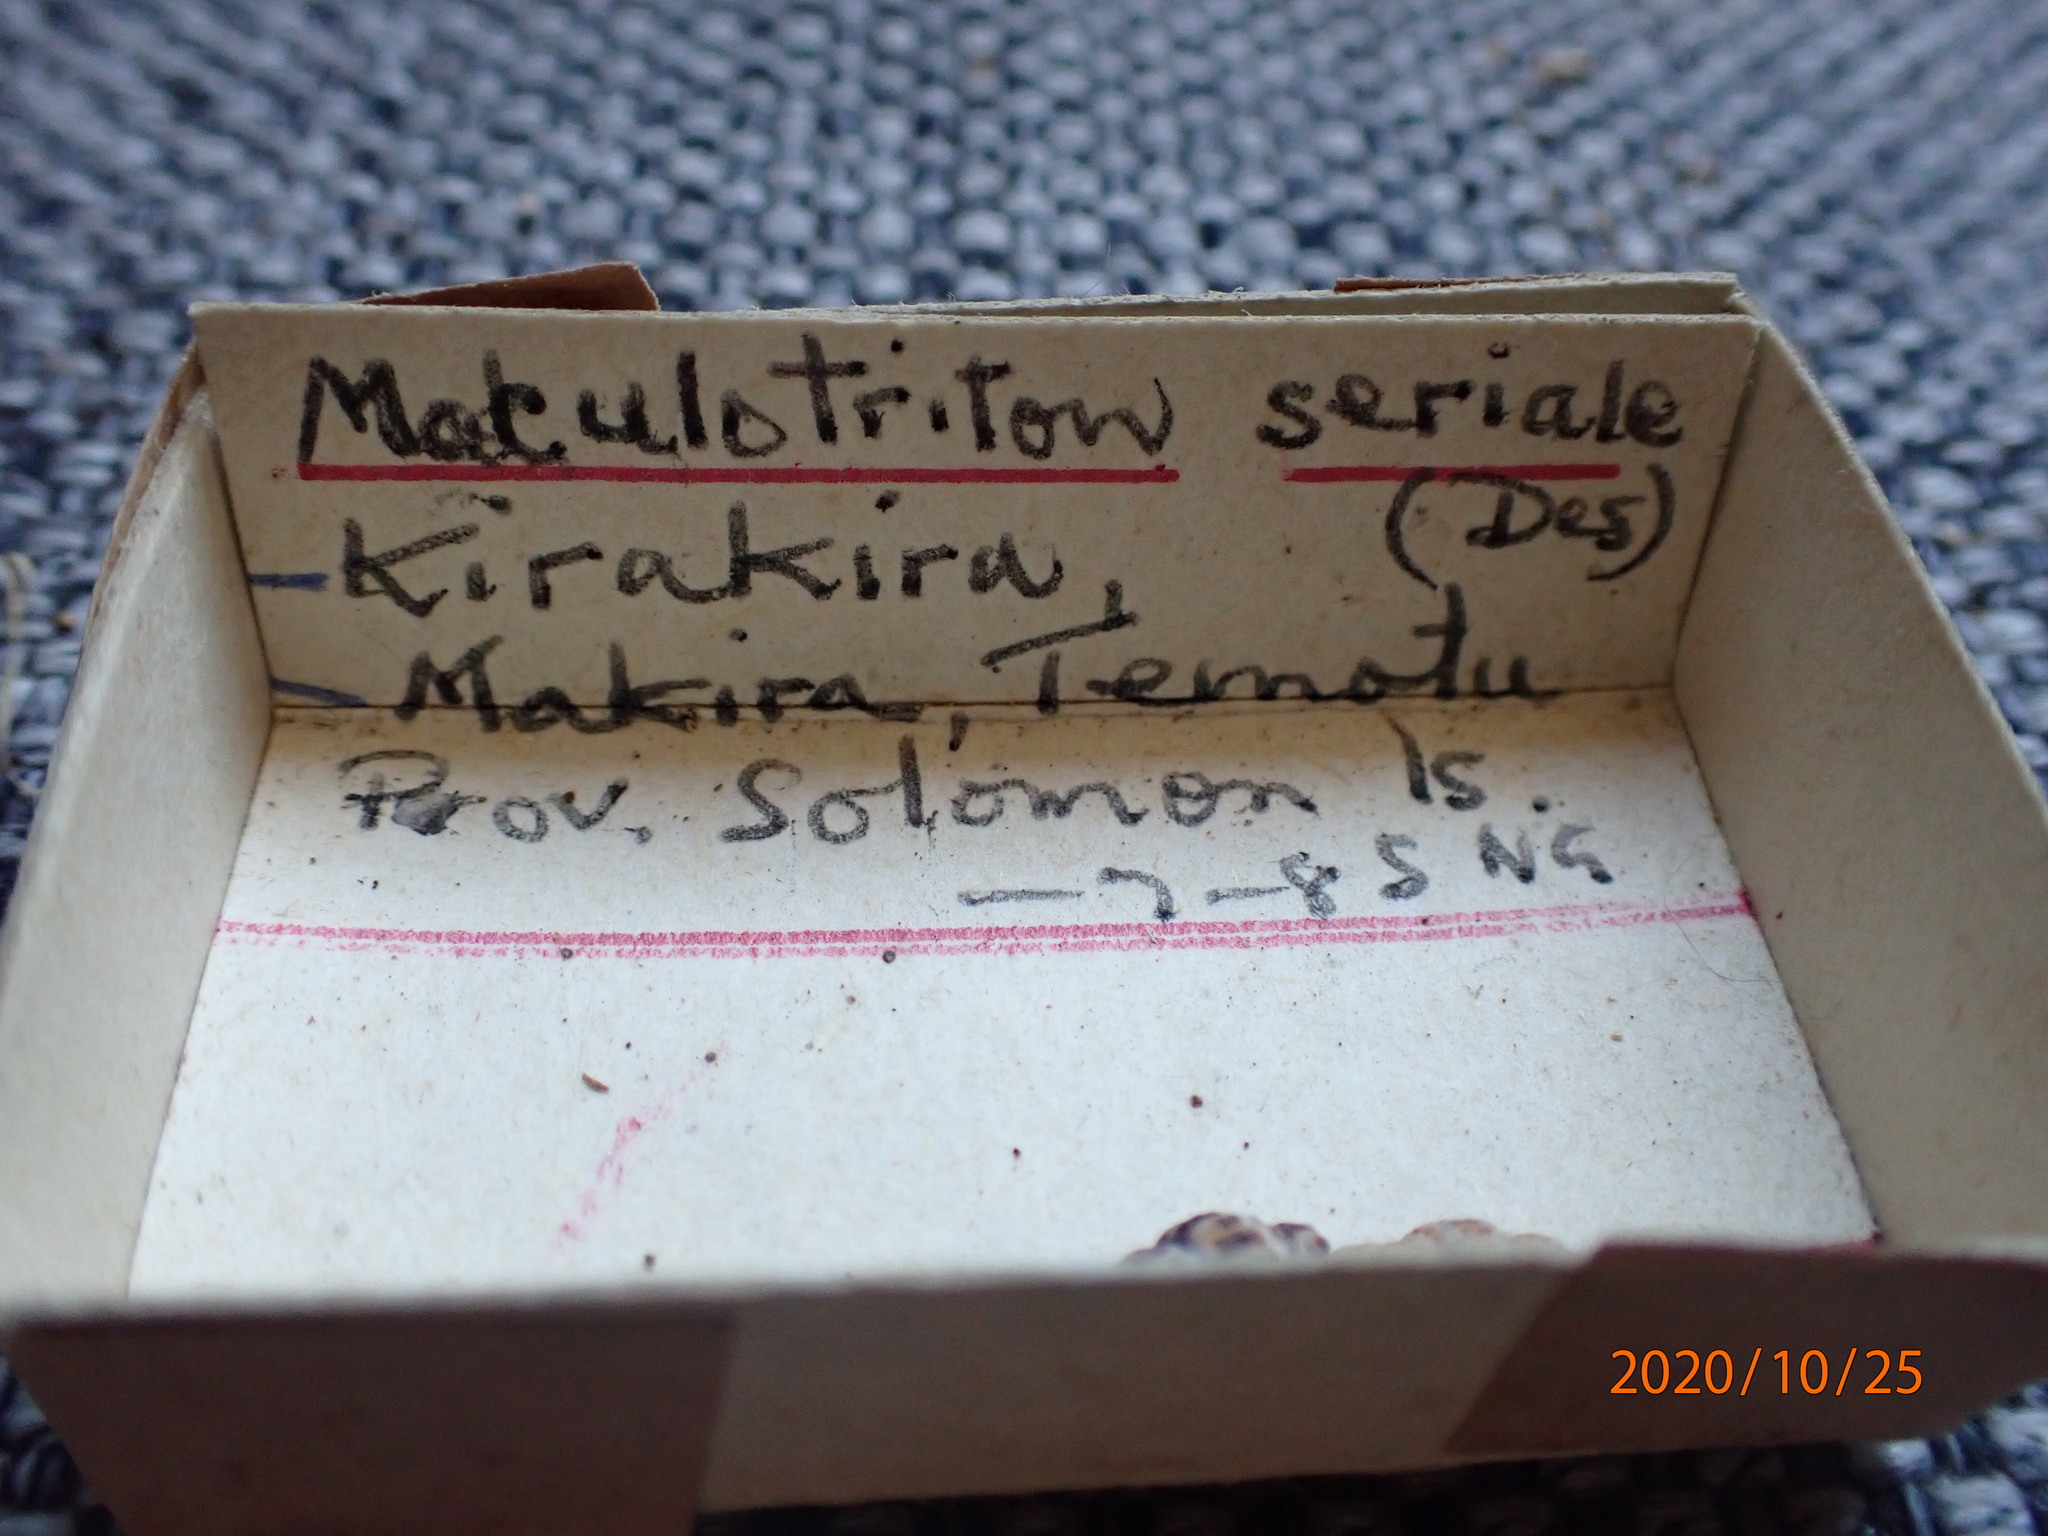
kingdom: Animalia
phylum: Mollusca
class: Gastropoda
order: Neogastropoda
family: Muricidae
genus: Maculotriton
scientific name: Maculotriton serriale
